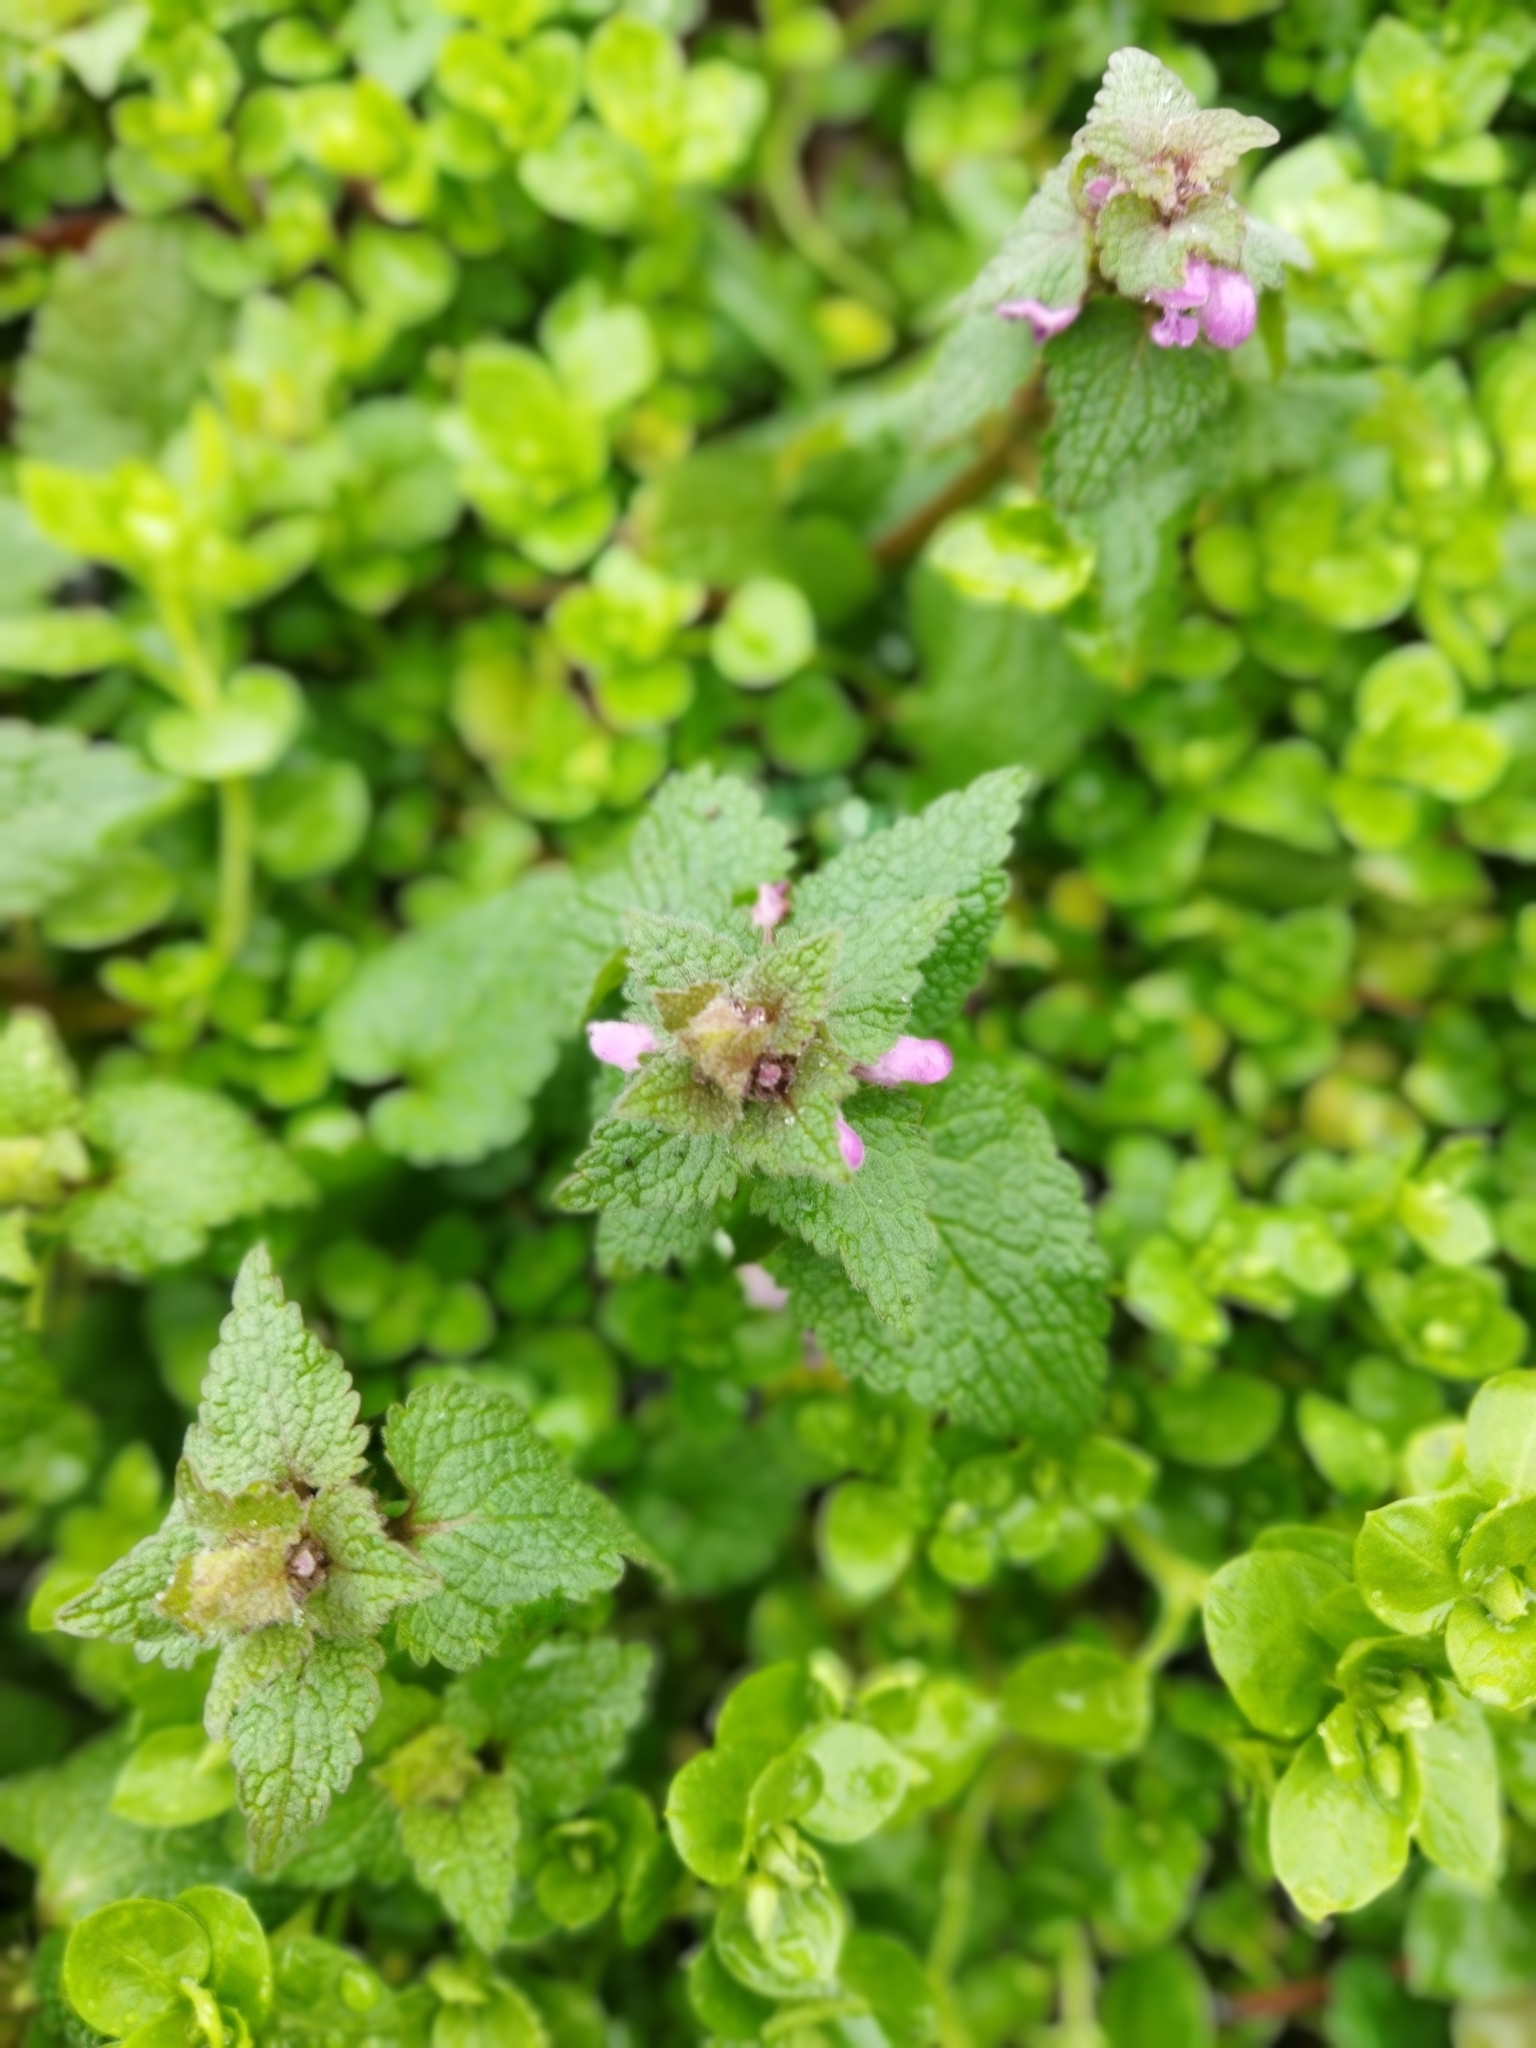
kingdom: Plantae
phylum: Tracheophyta
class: Magnoliopsida
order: Lamiales
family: Lamiaceae
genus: Lamium
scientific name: Lamium purpureum
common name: Red dead-nettle
